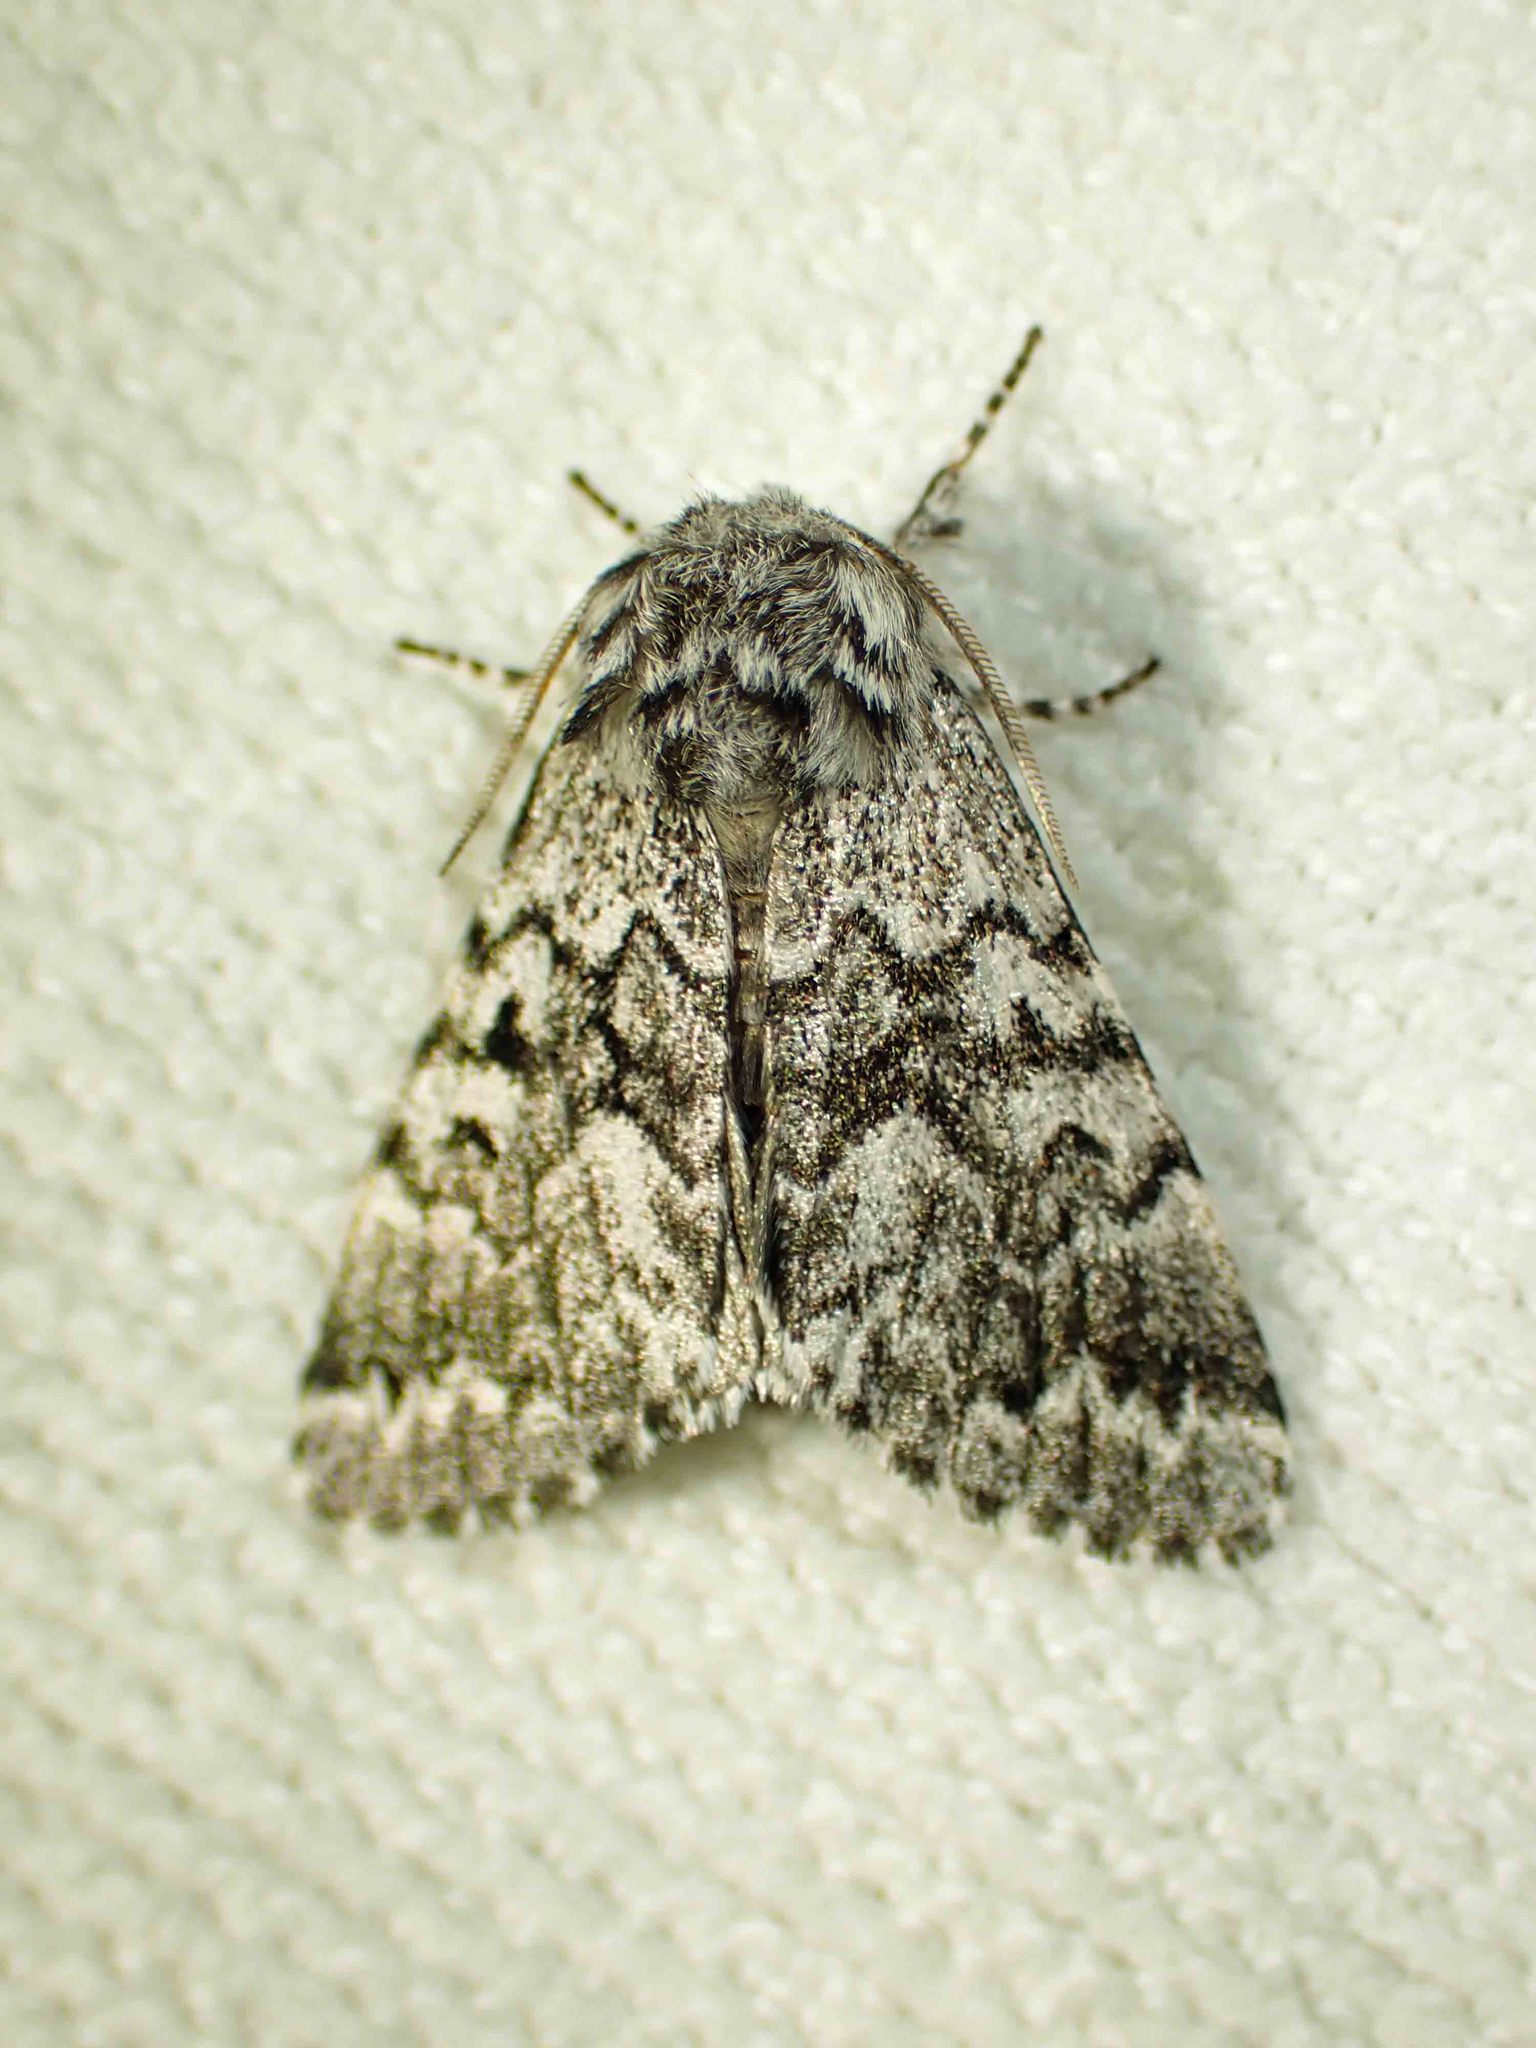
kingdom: Animalia
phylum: Arthropoda
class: Insecta
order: Lepidoptera
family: Noctuidae
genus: Panthea
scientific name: Panthea acronyctoides
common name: Black zigzag moth
